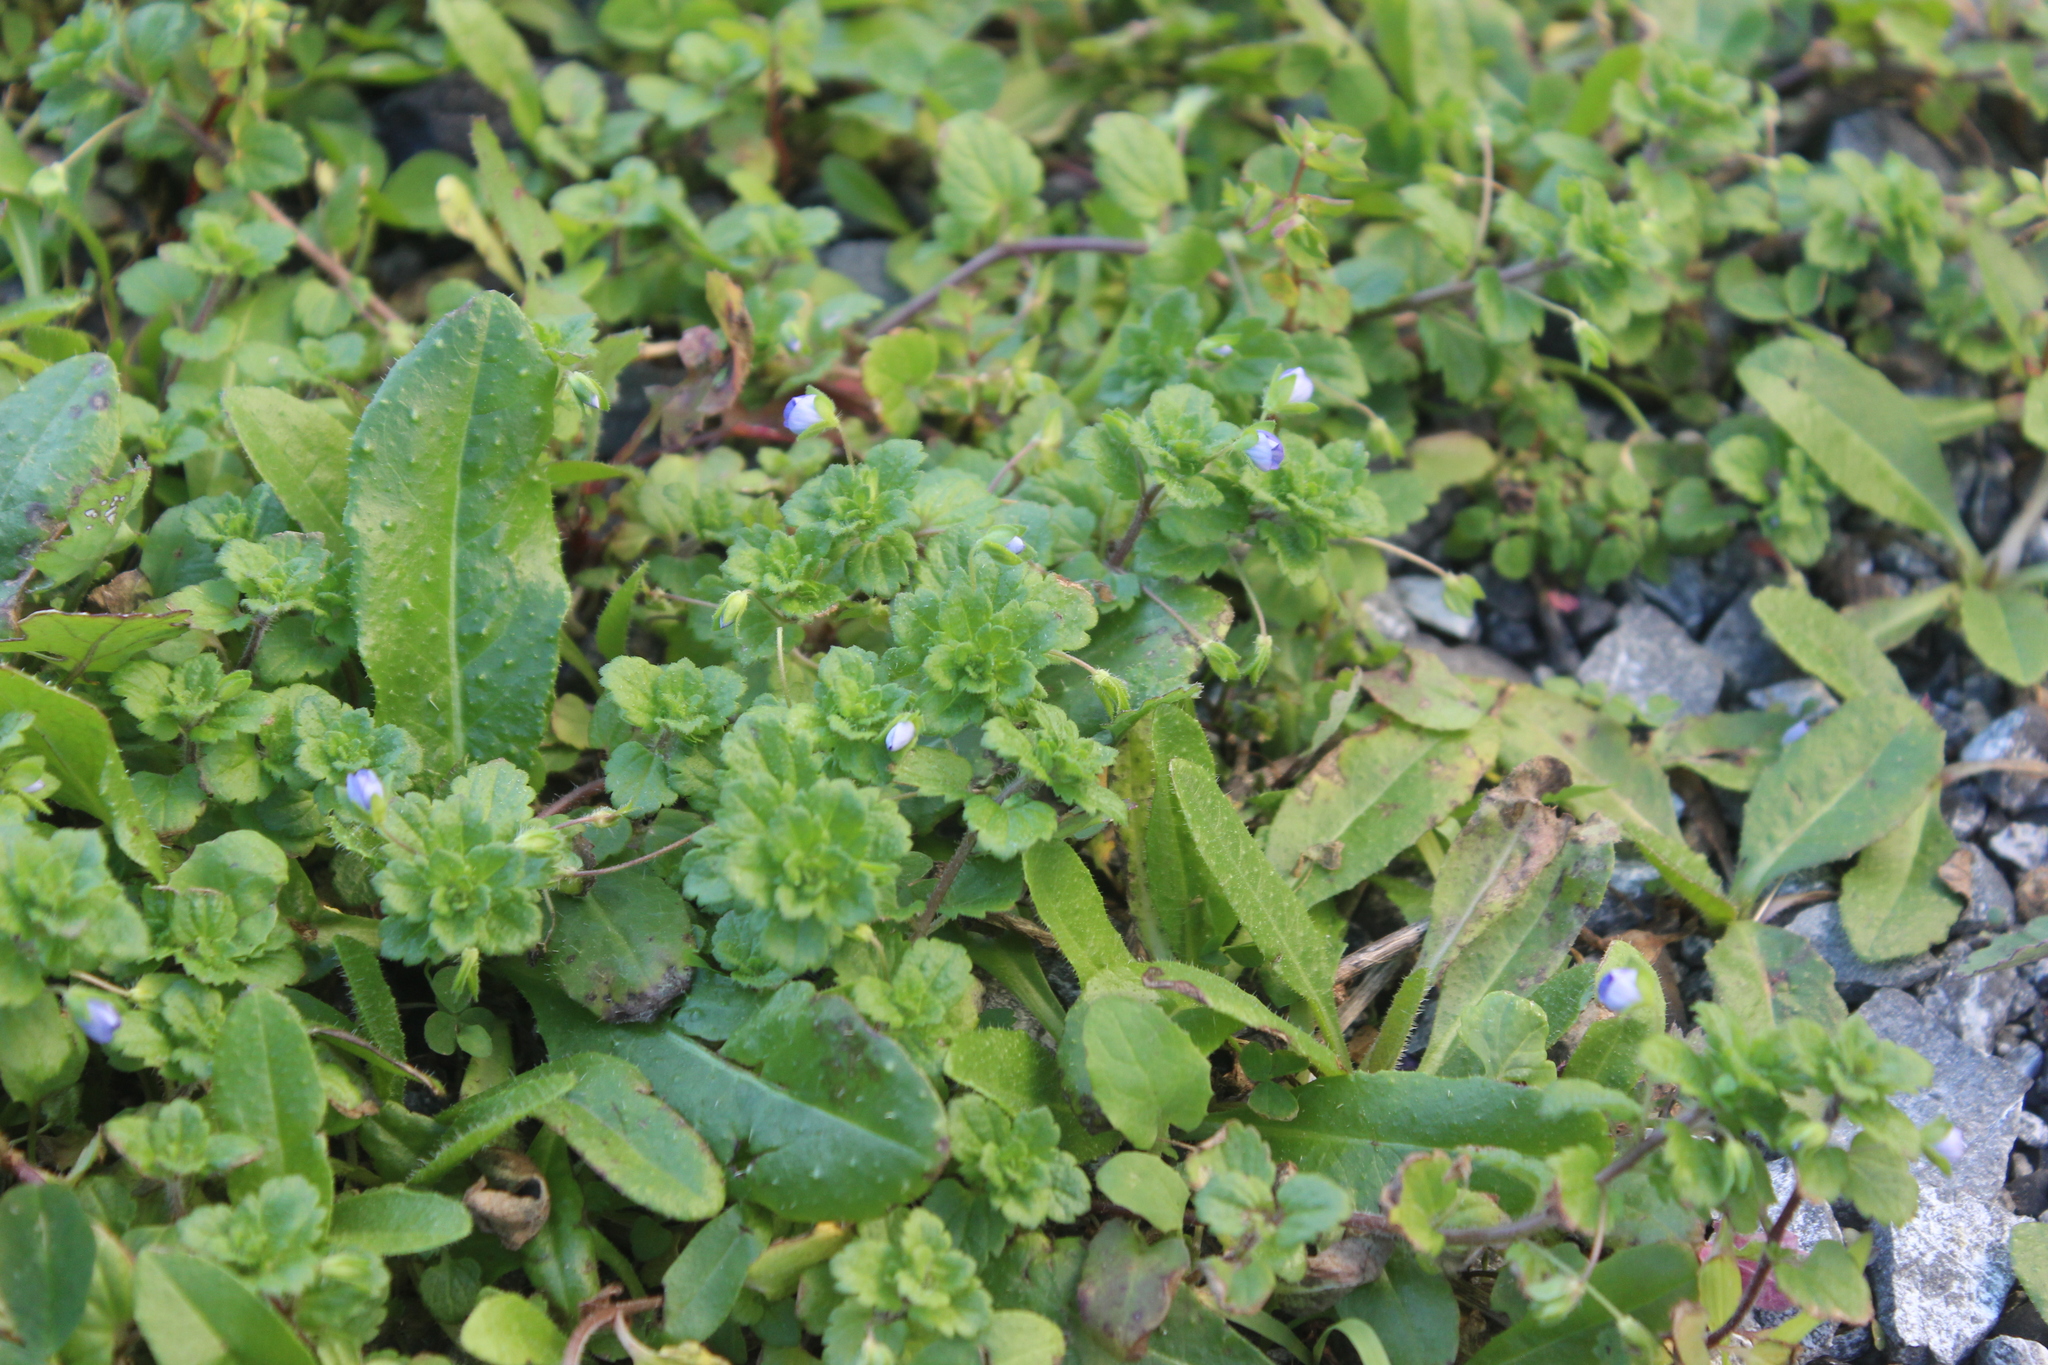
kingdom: Plantae
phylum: Tracheophyta
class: Magnoliopsida
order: Lamiales
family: Plantaginaceae
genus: Veronica
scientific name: Veronica persica
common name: Common field-speedwell
